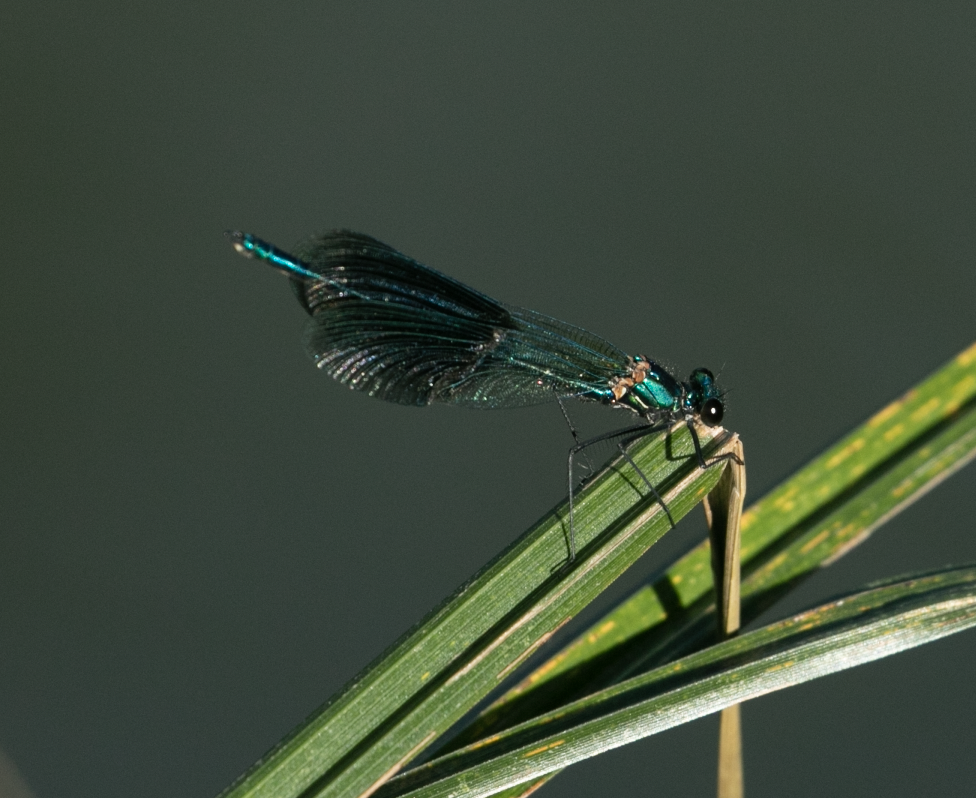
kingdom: Animalia
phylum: Arthropoda
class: Insecta
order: Odonata
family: Calopterygidae
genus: Calopteryx
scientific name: Calopteryx splendens
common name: Banded demoiselle
